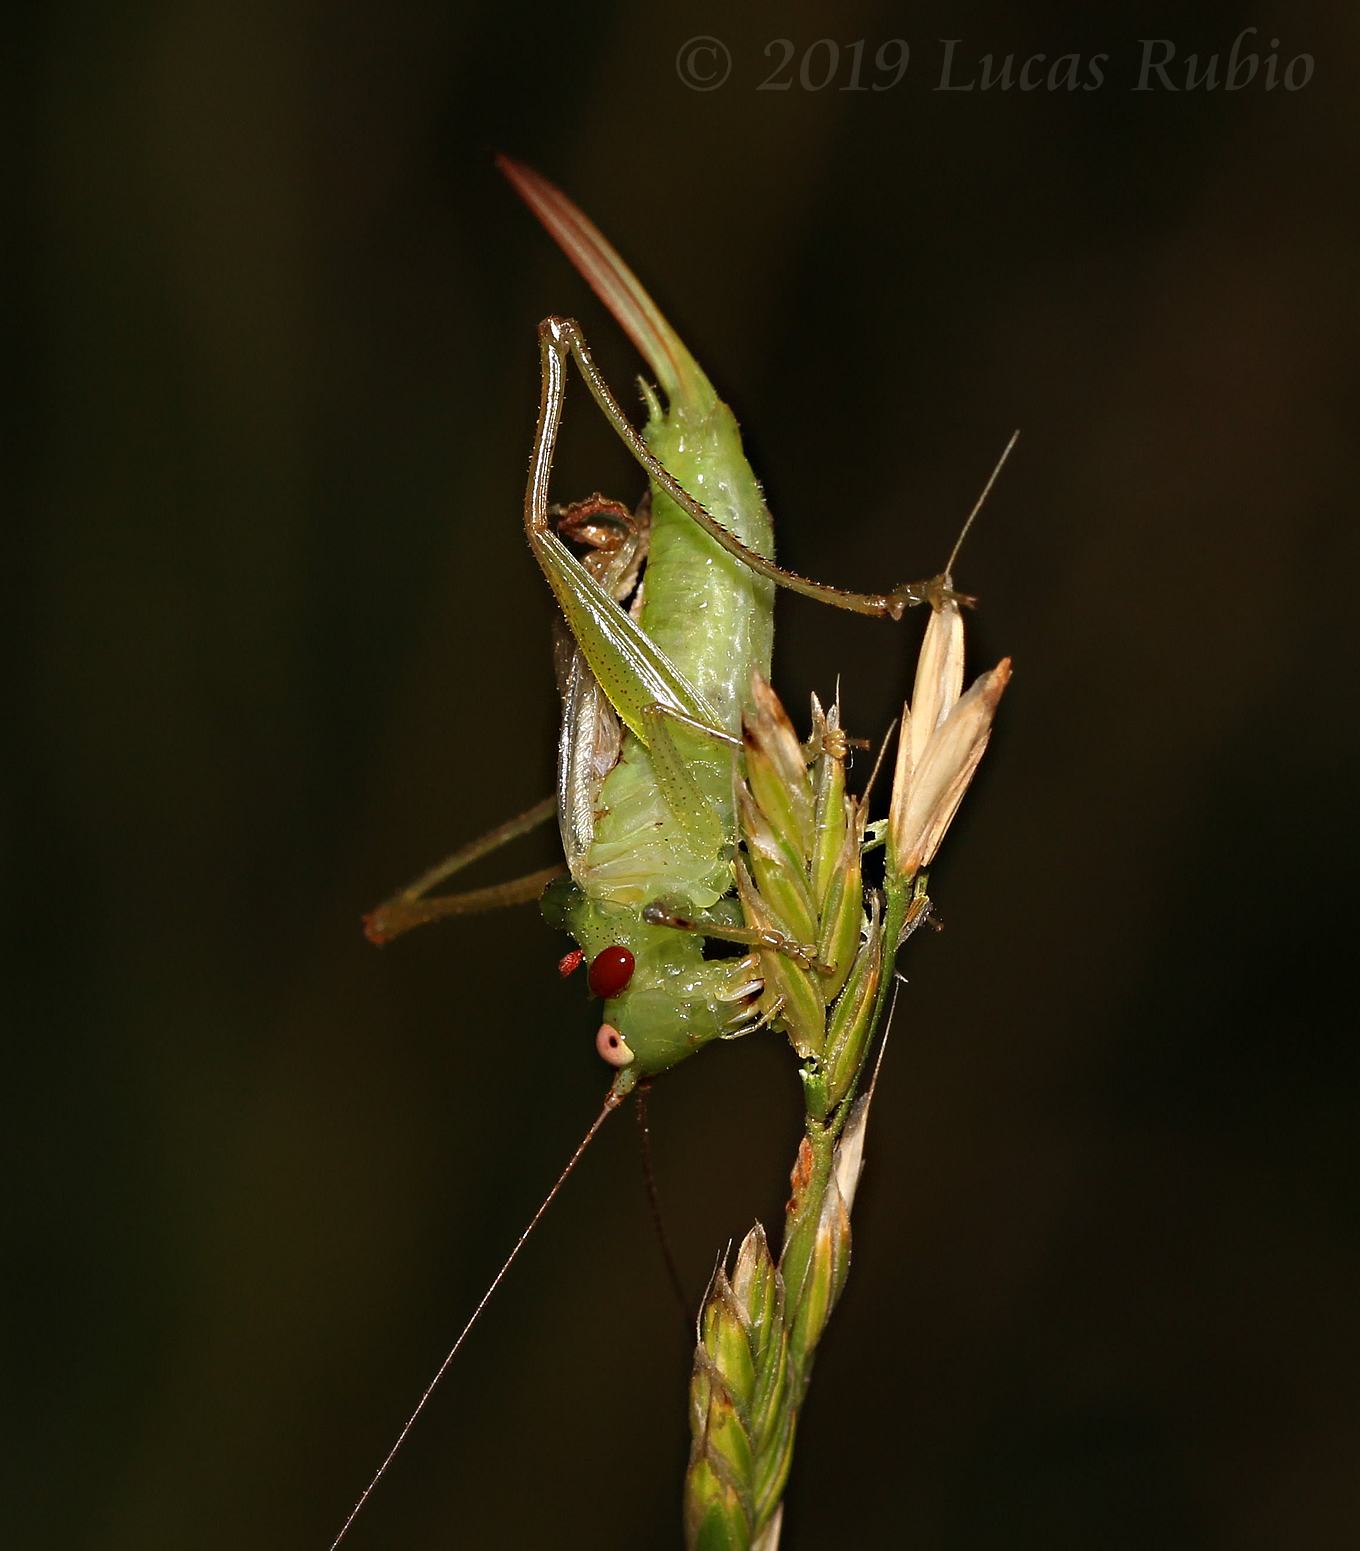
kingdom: Animalia
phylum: Arthropoda
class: Insecta
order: Orthoptera
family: Tettigoniidae
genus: Conocephalus
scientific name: Conocephalus longipes
